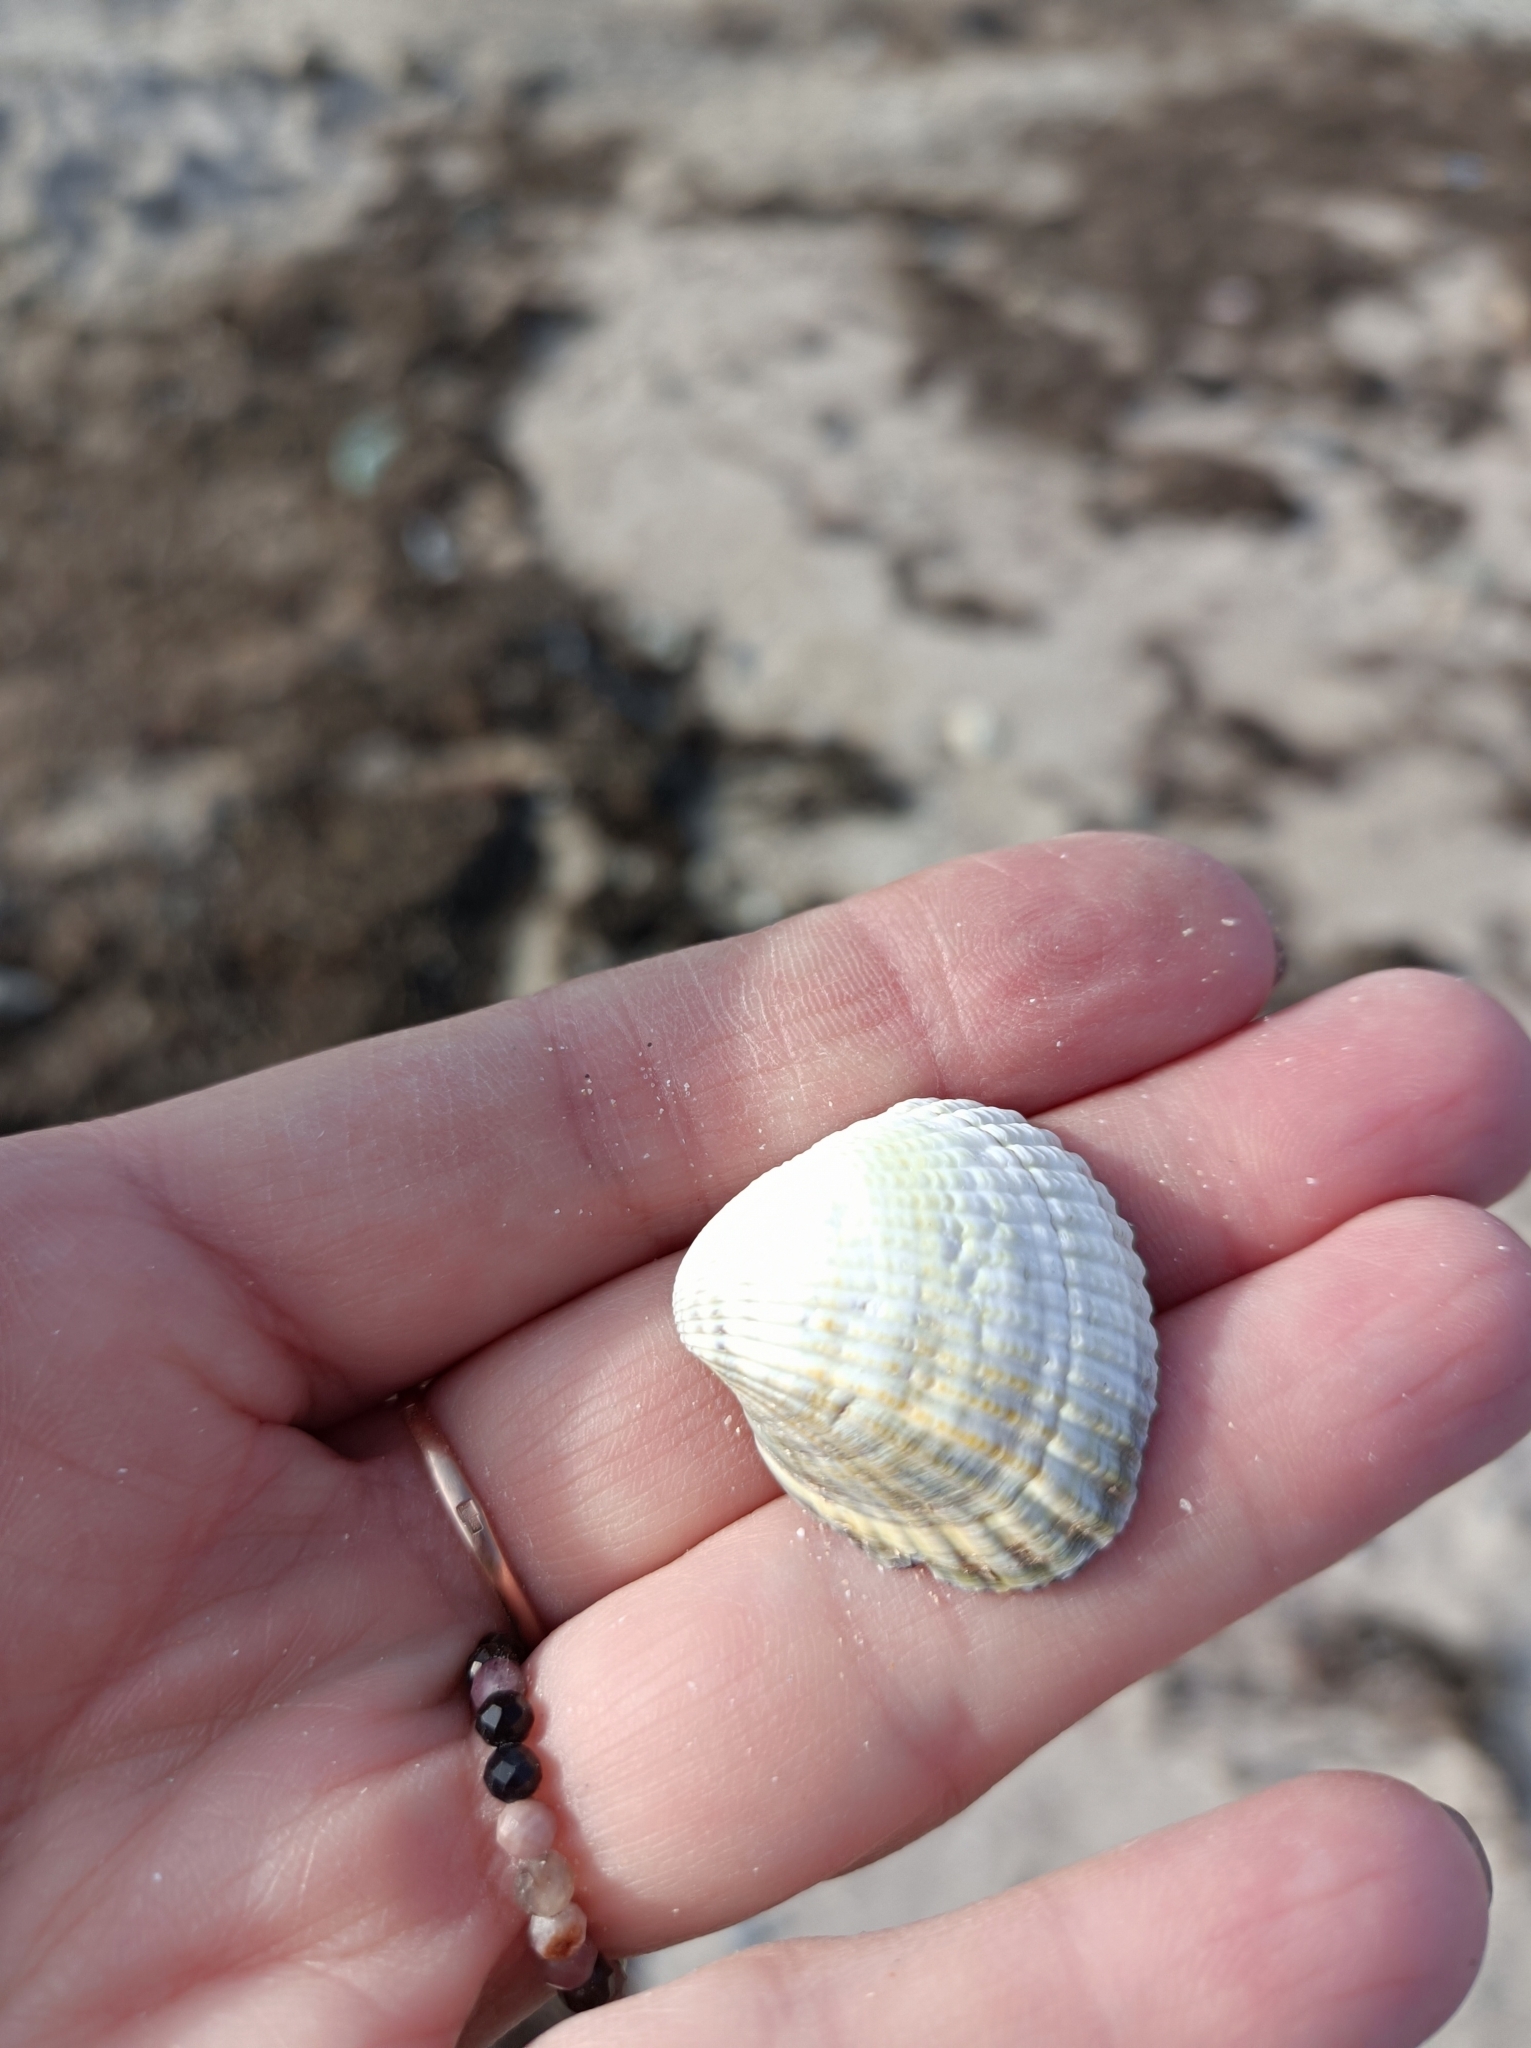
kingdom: Animalia
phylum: Mollusca
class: Bivalvia
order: Cardiida
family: Cardiidae
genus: Cerastoderma
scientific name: Cerastoderma glaucum
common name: Lagoon cockle
